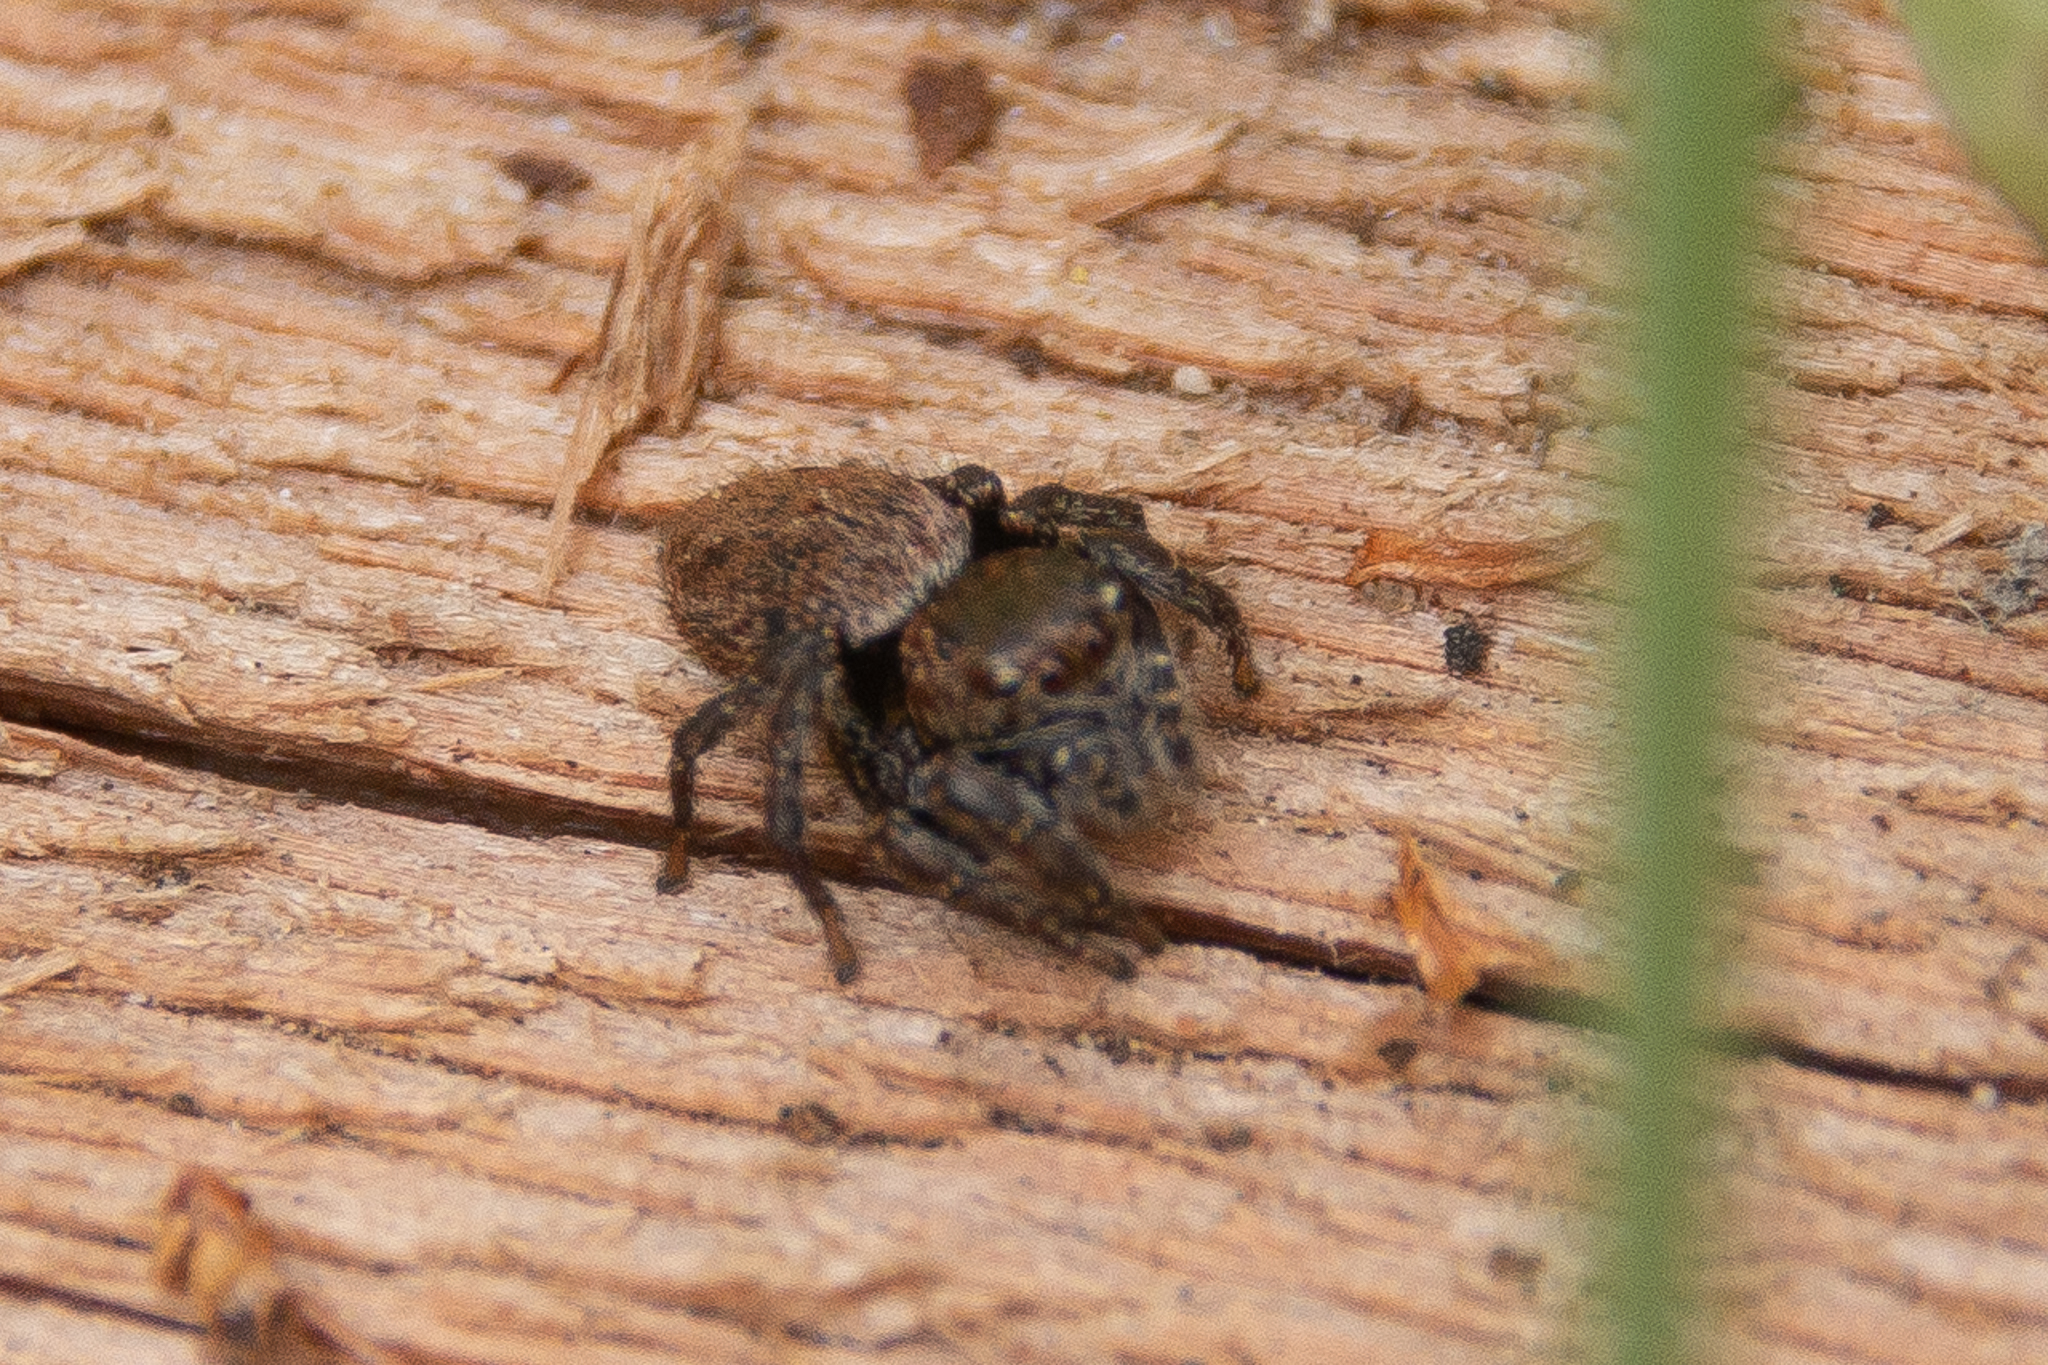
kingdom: Animalia
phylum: Arthropoda
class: Arachnida
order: Araneae
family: Salticidae
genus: Evarcha
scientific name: Evarcha proszynskii
